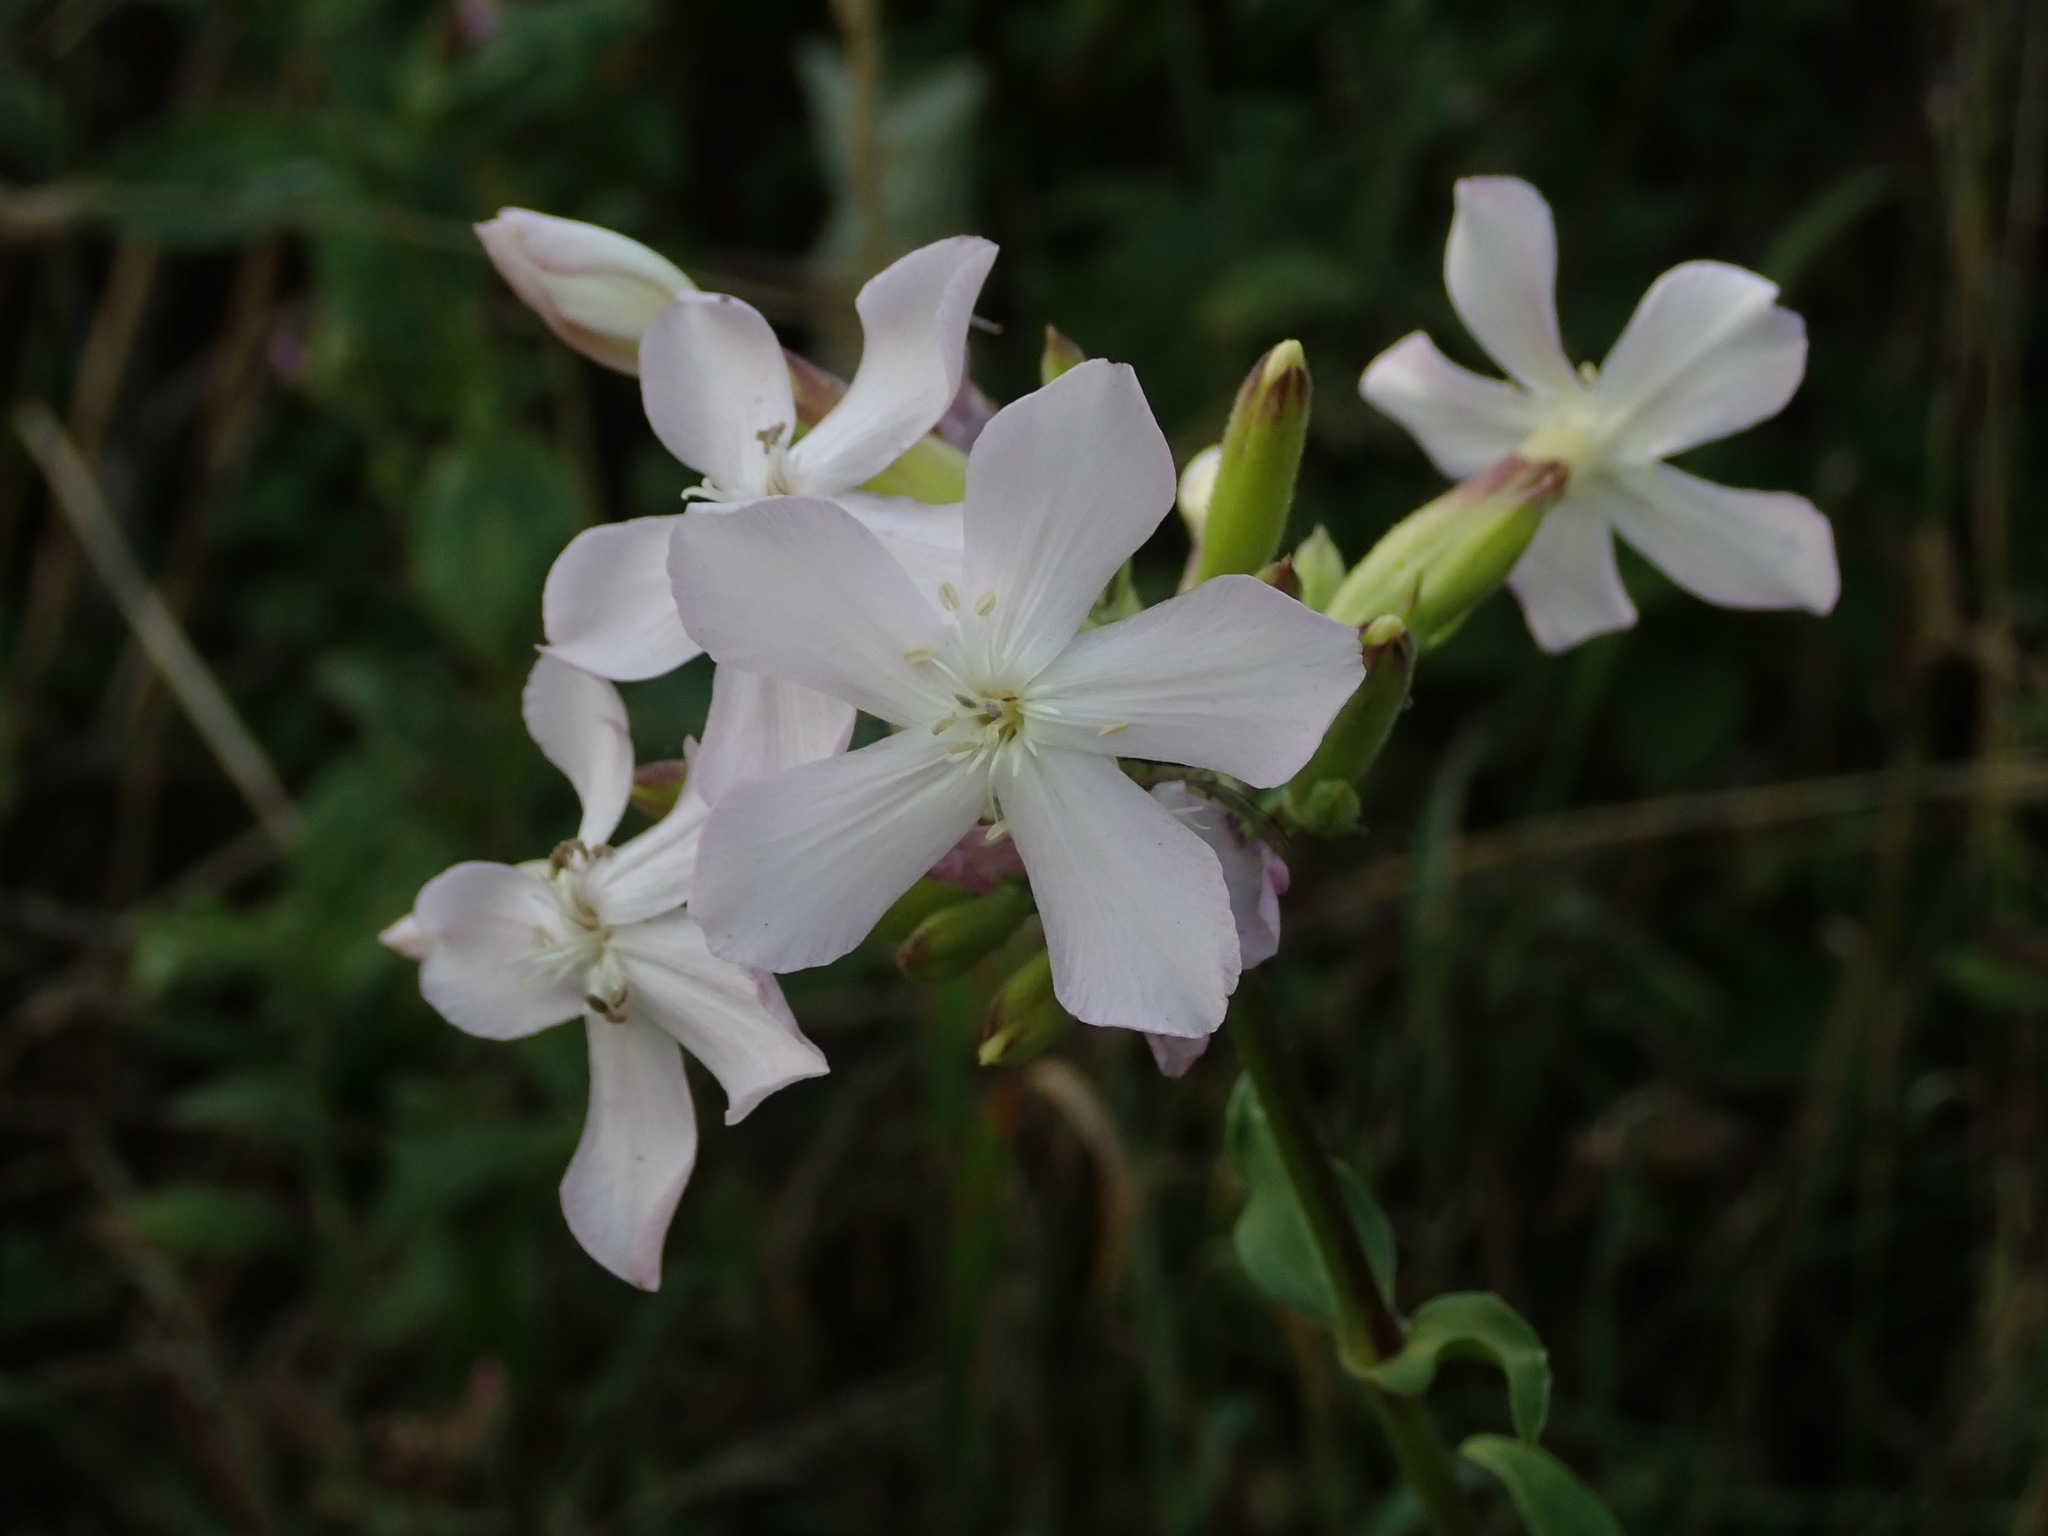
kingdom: Plantae
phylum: Tracheophyta
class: Magnoliopsida
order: Caryophyllales
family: Caryophyllaceae
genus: Saponaria
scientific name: Saponaria officinalis
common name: Soapwort
